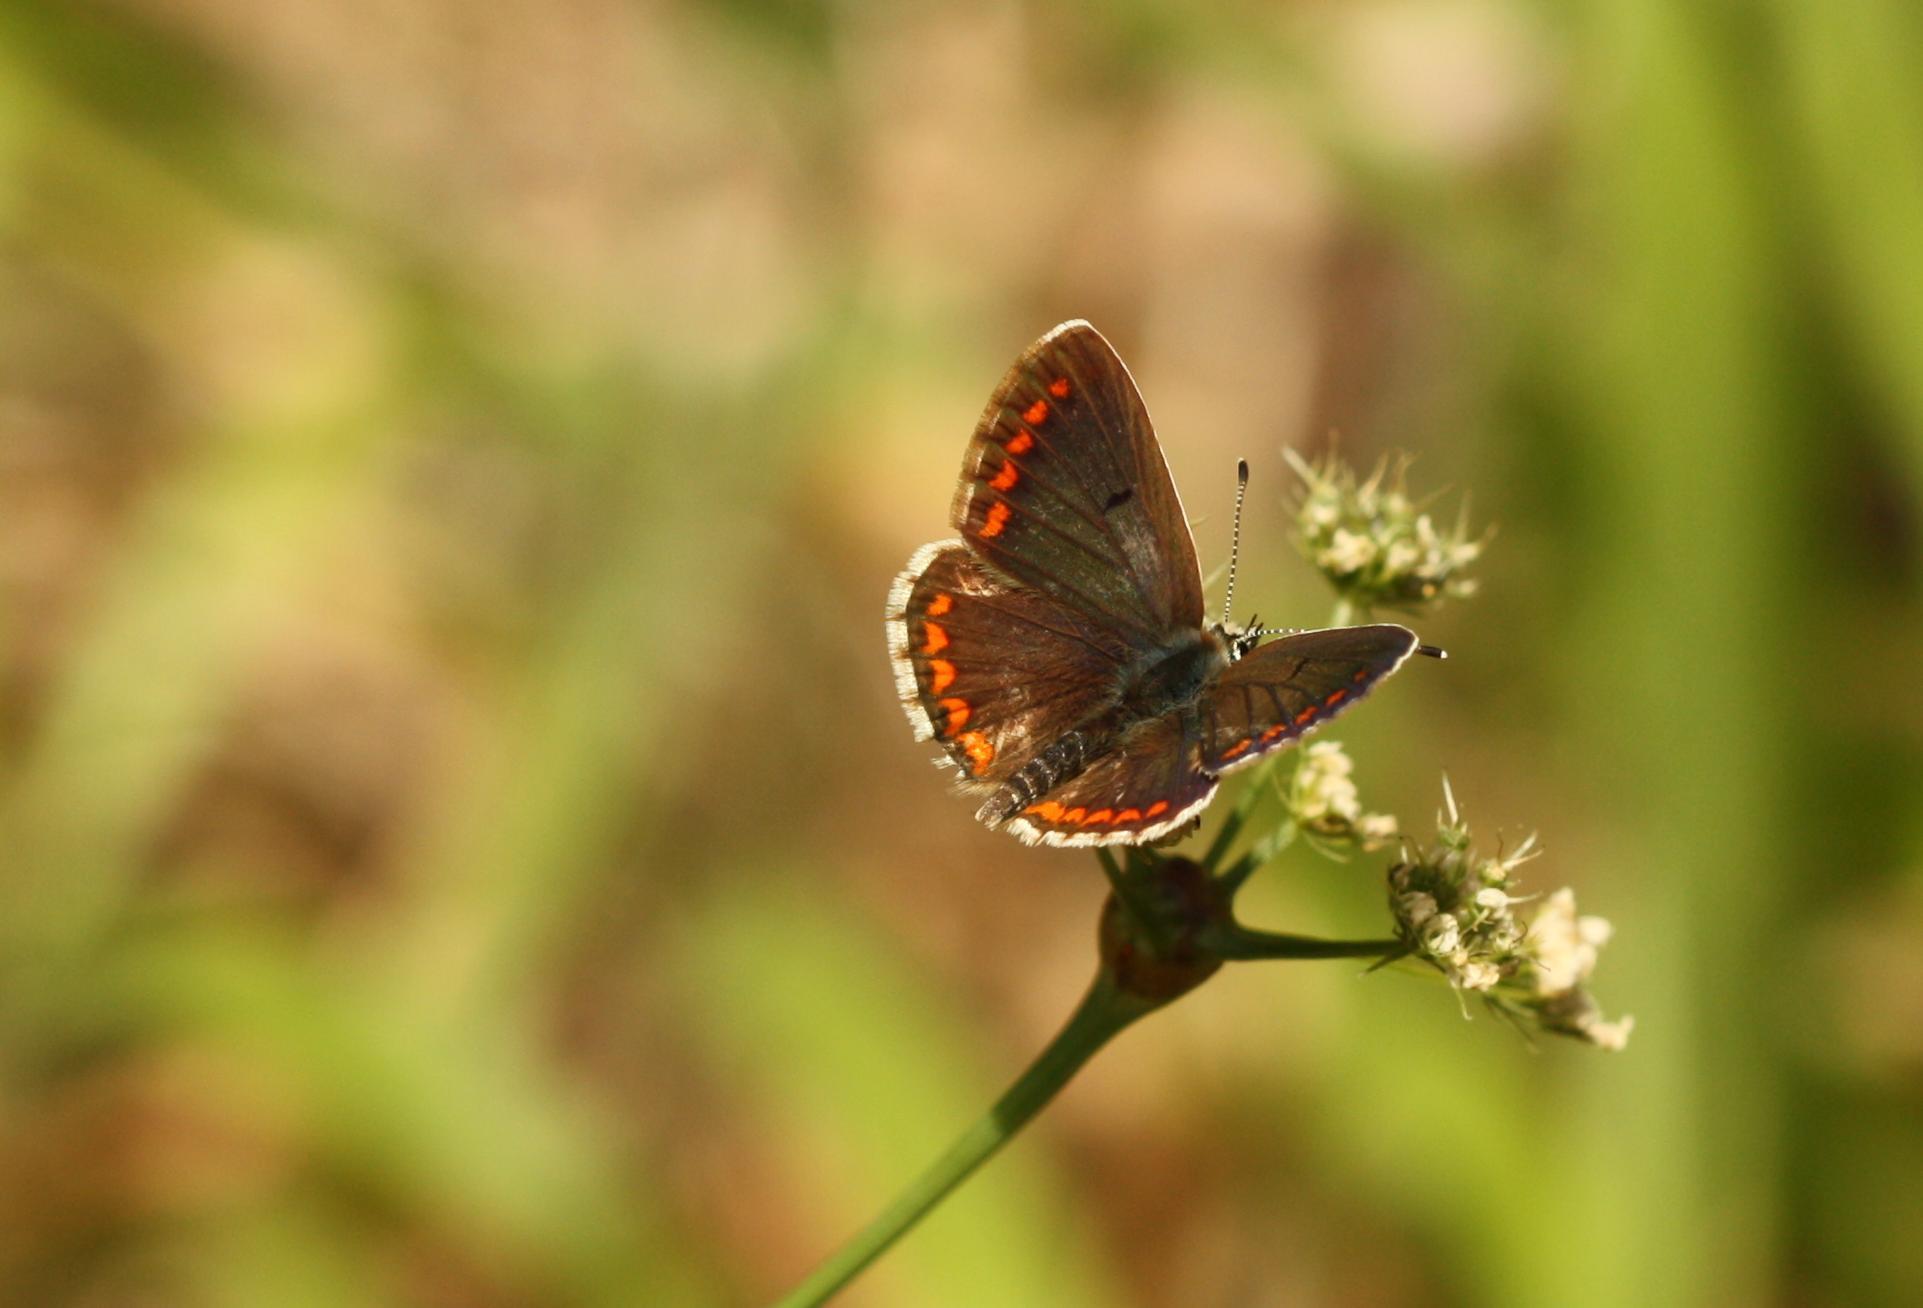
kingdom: Animalia
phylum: Arthropoda
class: Insecta
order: Lepidoptera
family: Lycaenidae
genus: Aricia
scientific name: Aricia agestis
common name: Brown argus
